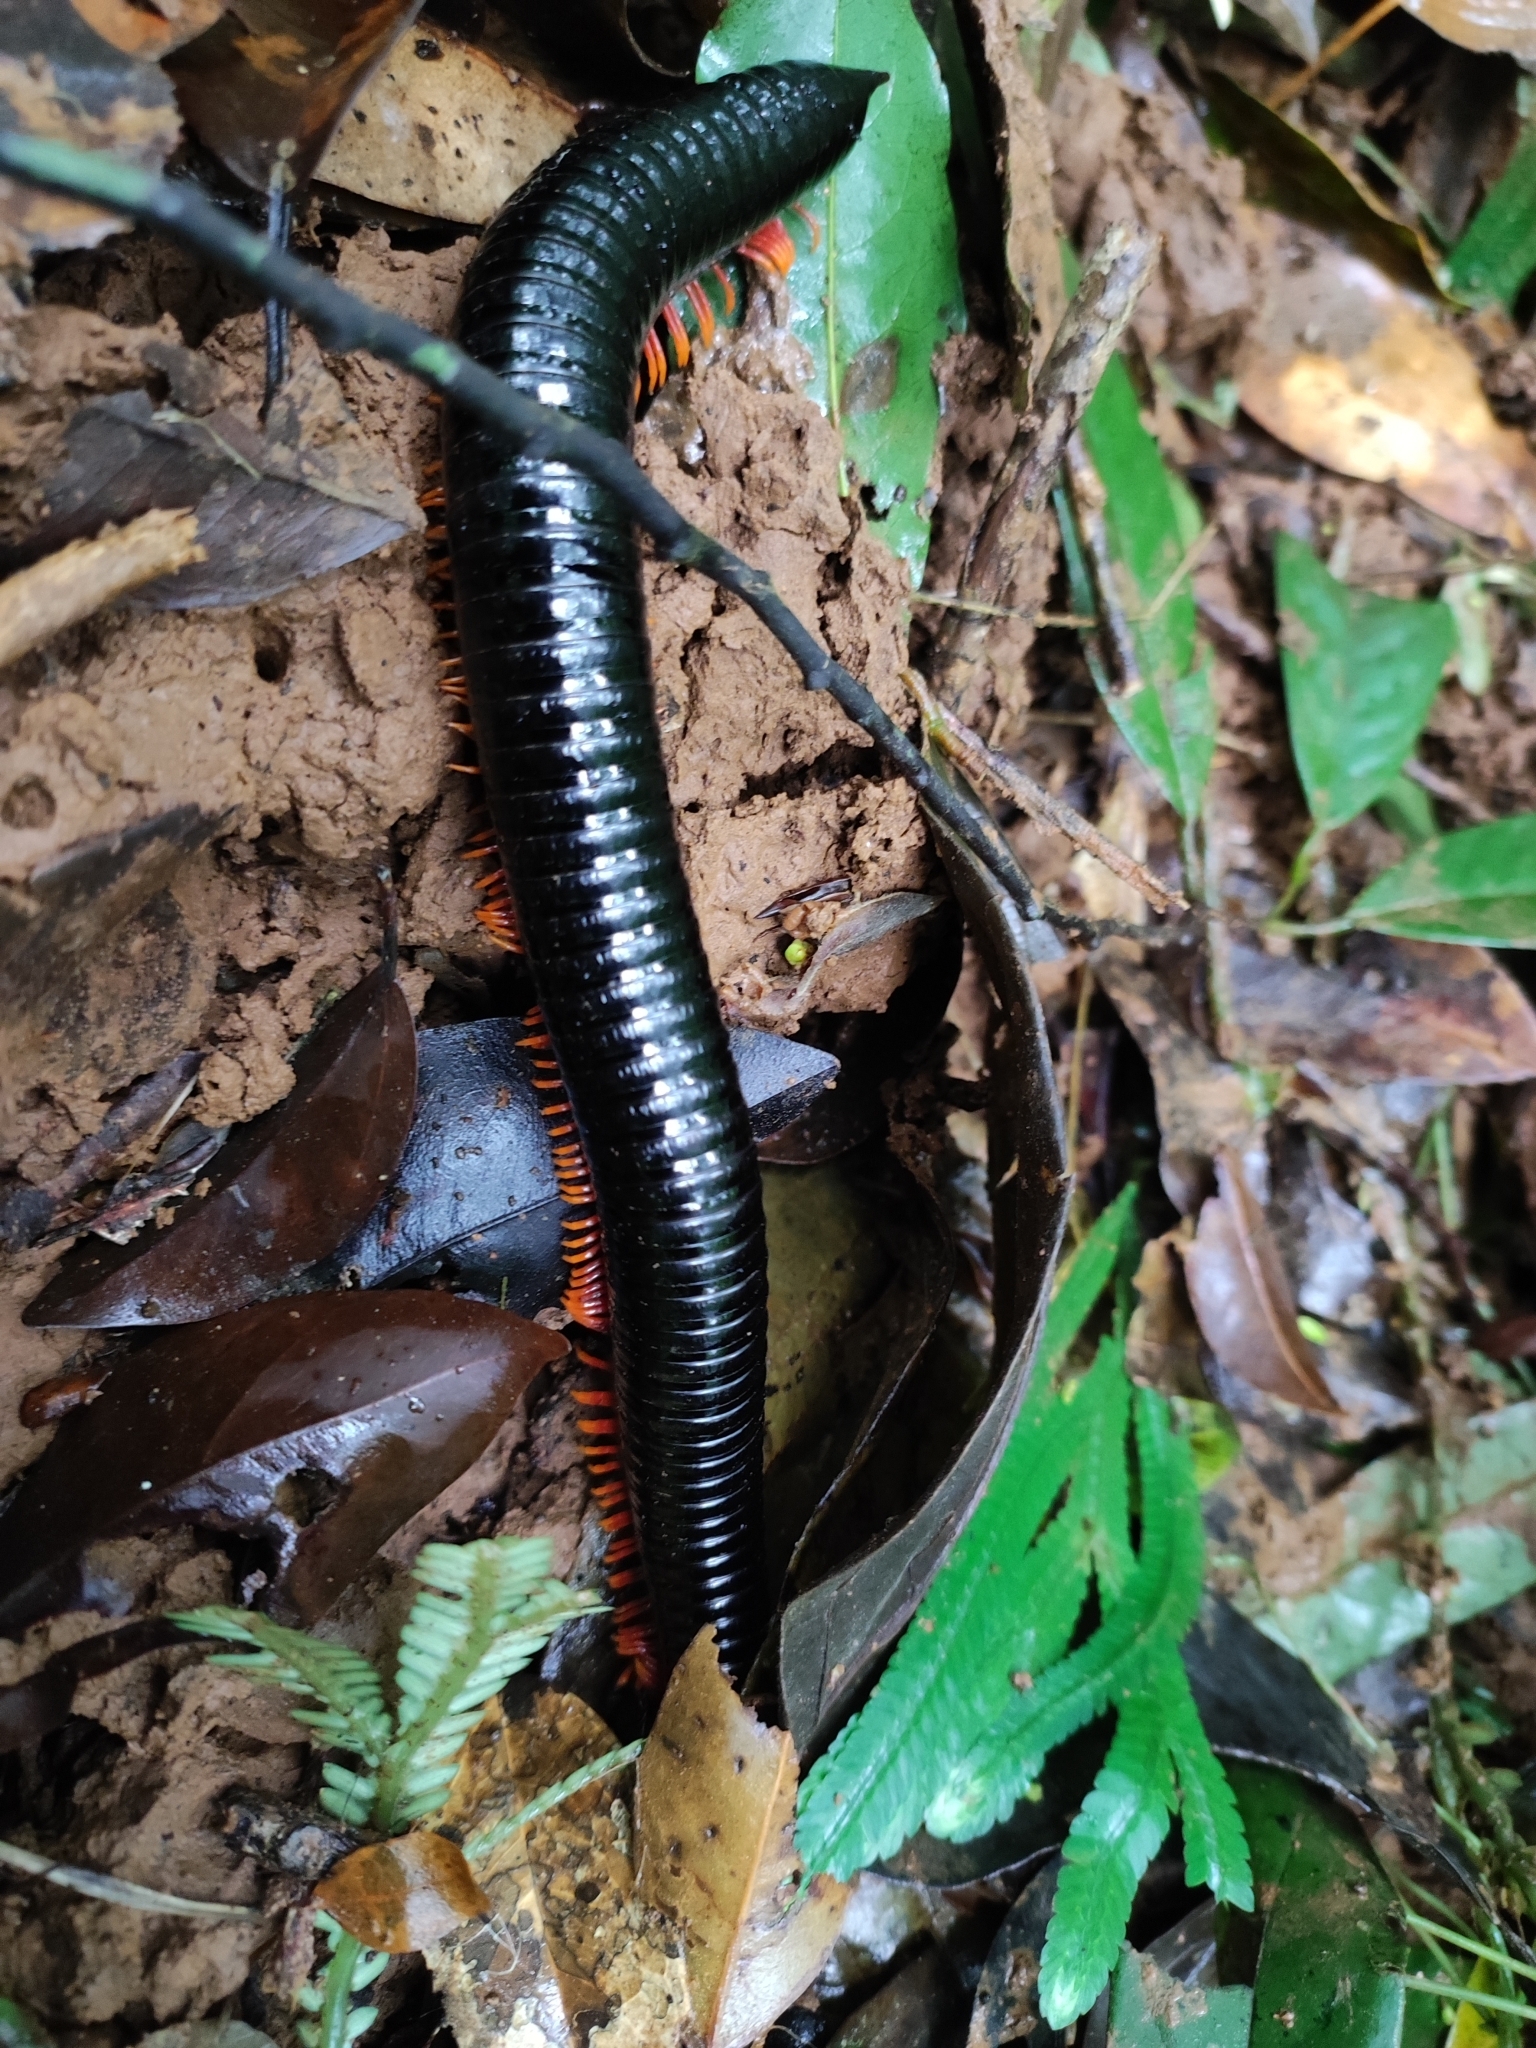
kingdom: Animalia
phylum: Arthropoda
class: Diplopoda
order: Spirostreptida
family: Harpagophoridae
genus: Alienostreptus
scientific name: Alienostreptus bicoloripes
